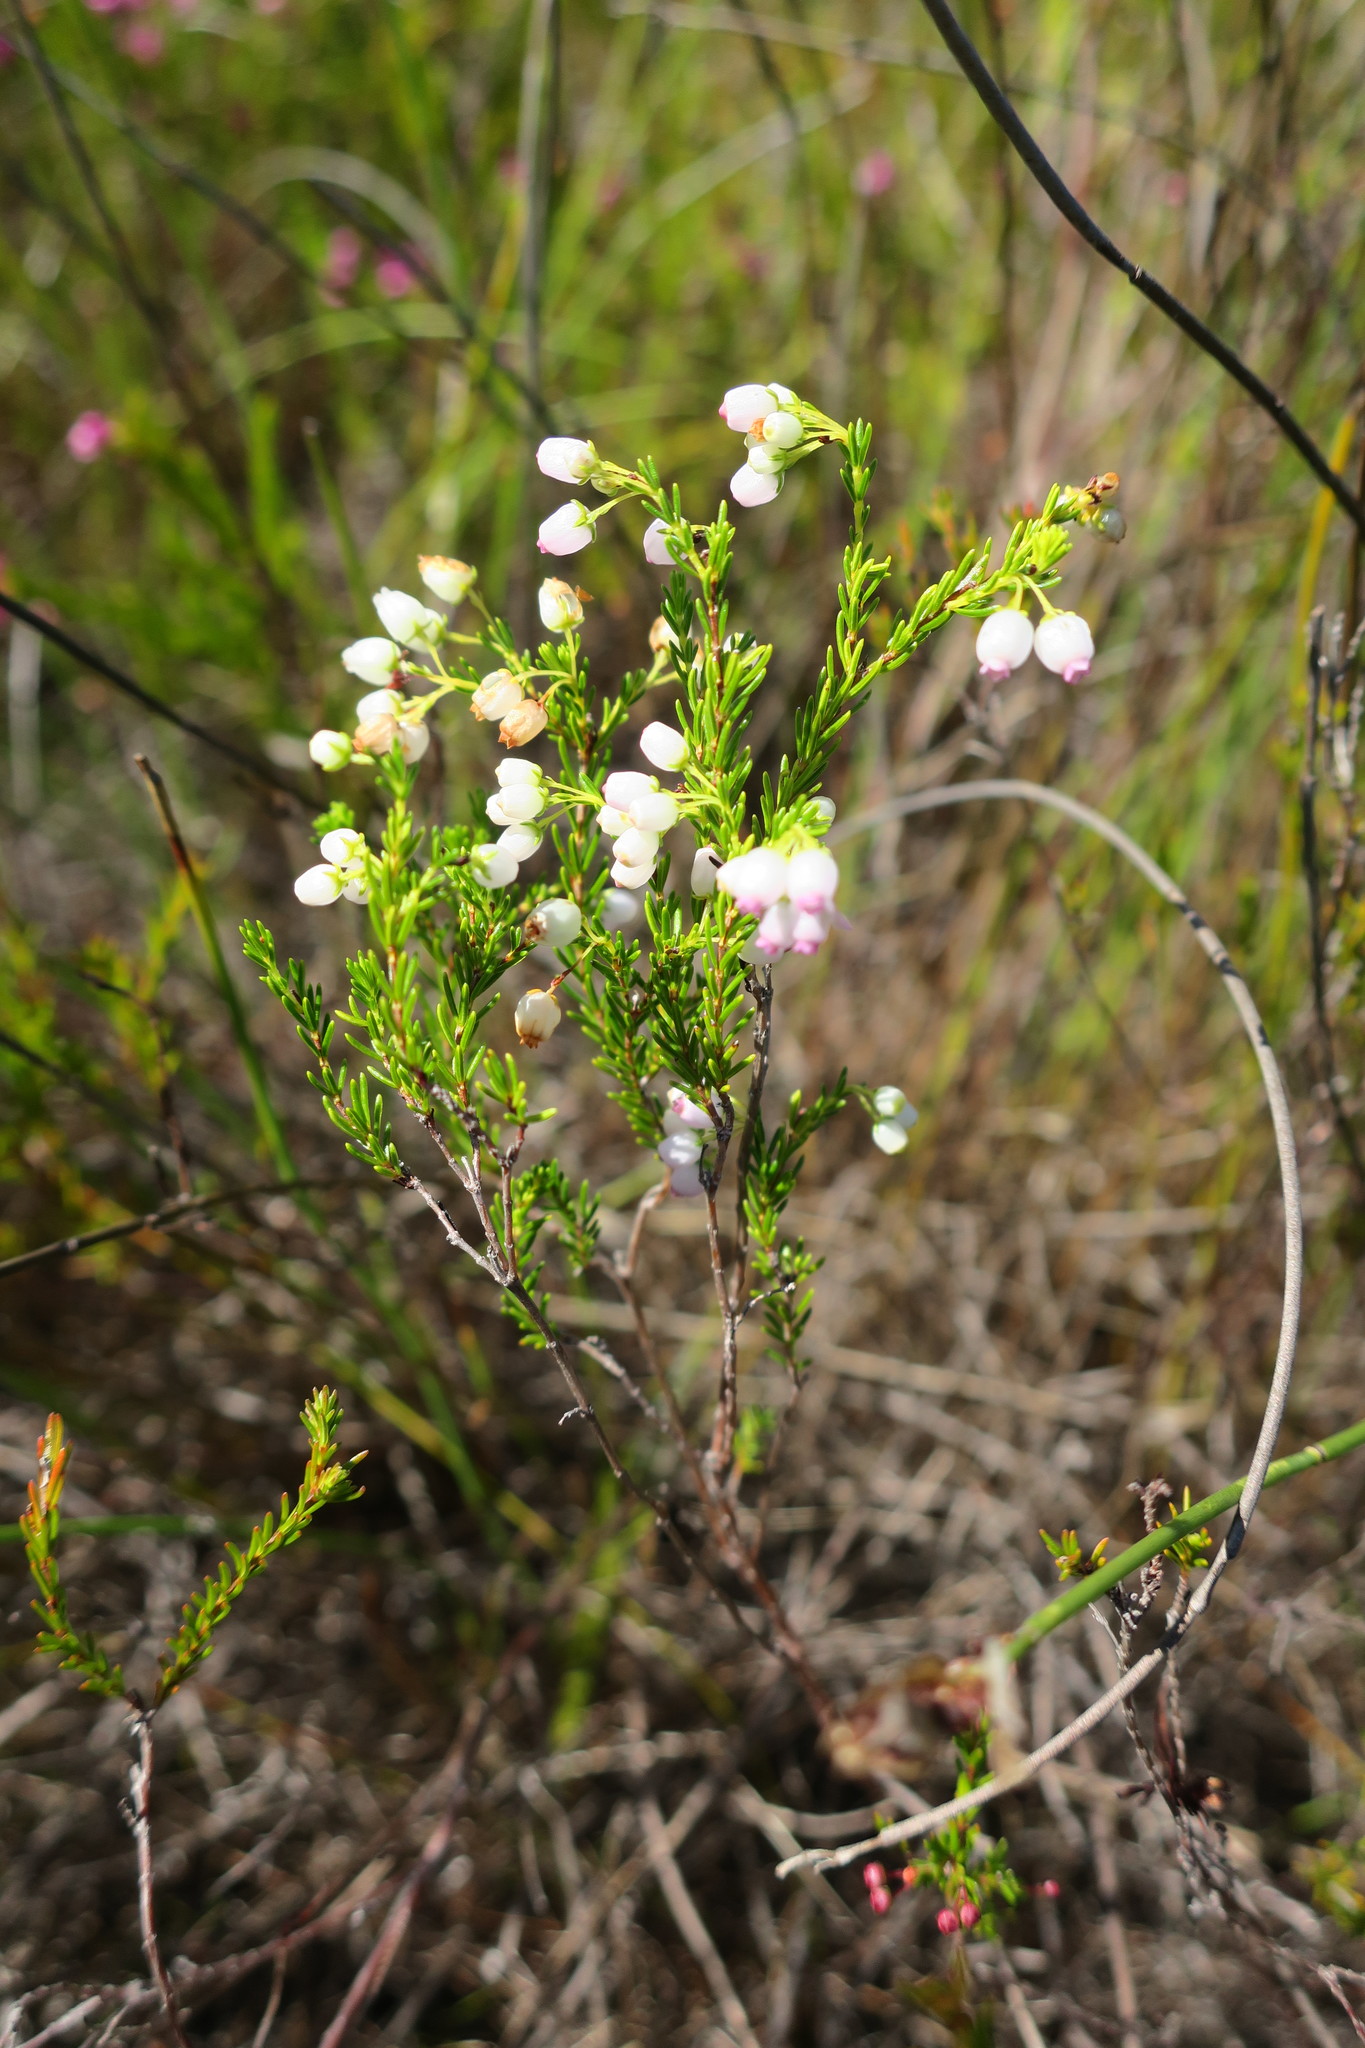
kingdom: Plantae
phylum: Tracheophyta
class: Magnoliopsida
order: Ericales
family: Ericaceae
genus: Erica
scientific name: Erica multumbellifera
